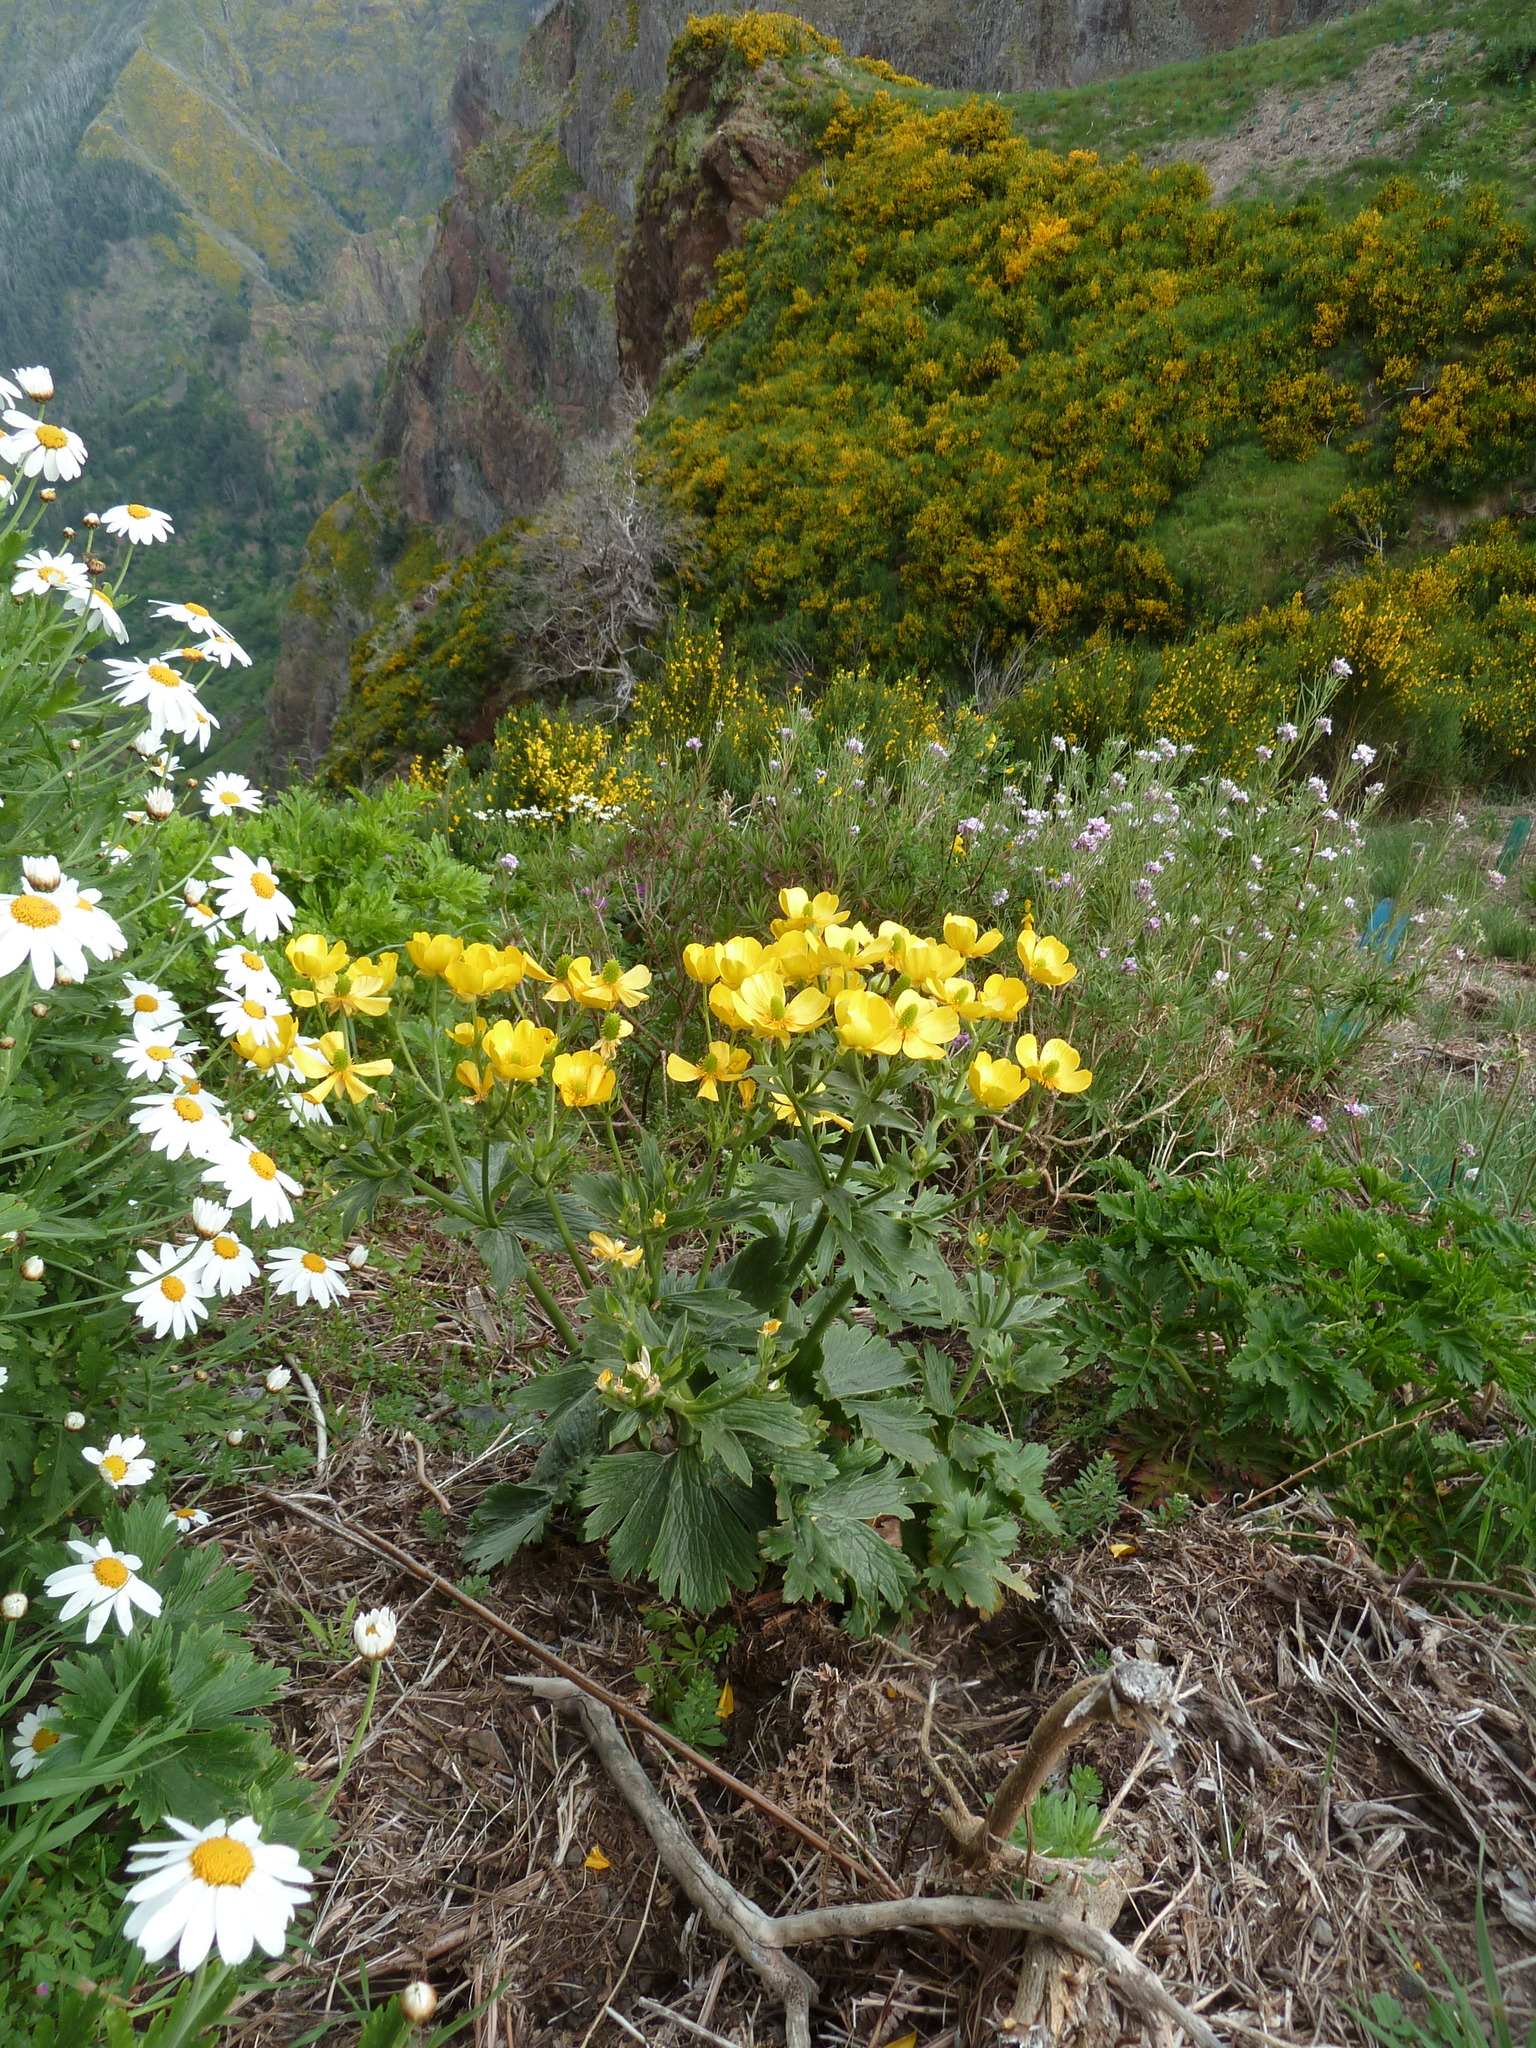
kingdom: Plantae
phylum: Tracheophyta
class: Magnoliopsida
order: Ranunculales
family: Ranunculaceae
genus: Ranunculus
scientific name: Ranunculus cortusifolius
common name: Azores buttercup
